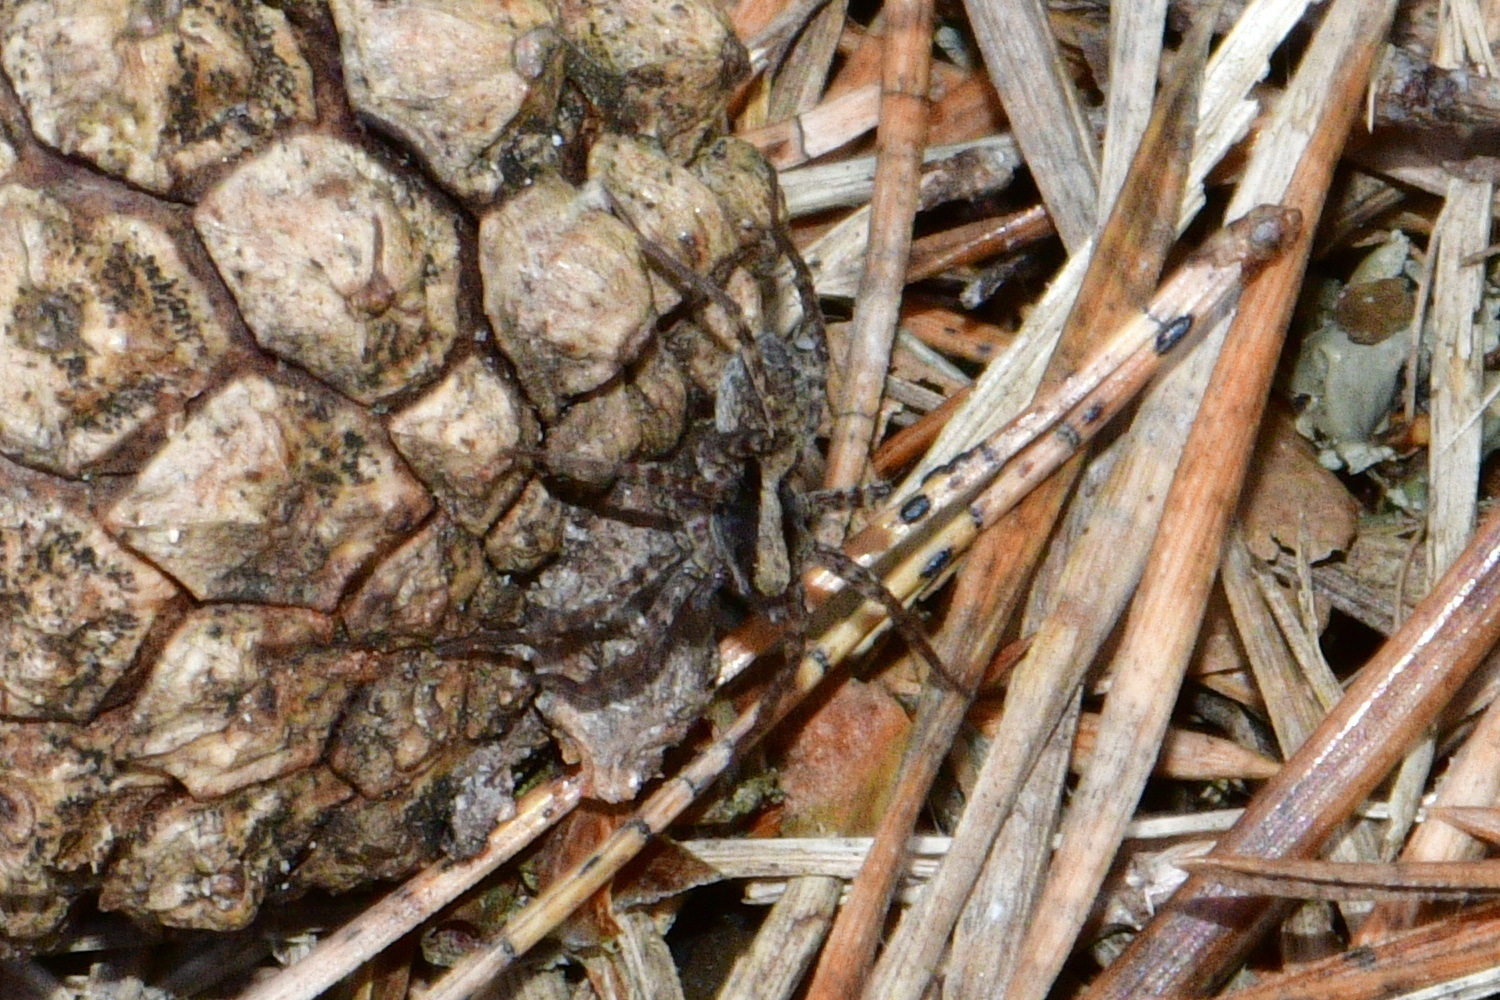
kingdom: Animalia
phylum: Arthropoda
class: Arachnida
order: Araneae
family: Lycosidae
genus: Pardosa
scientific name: Pardosa
